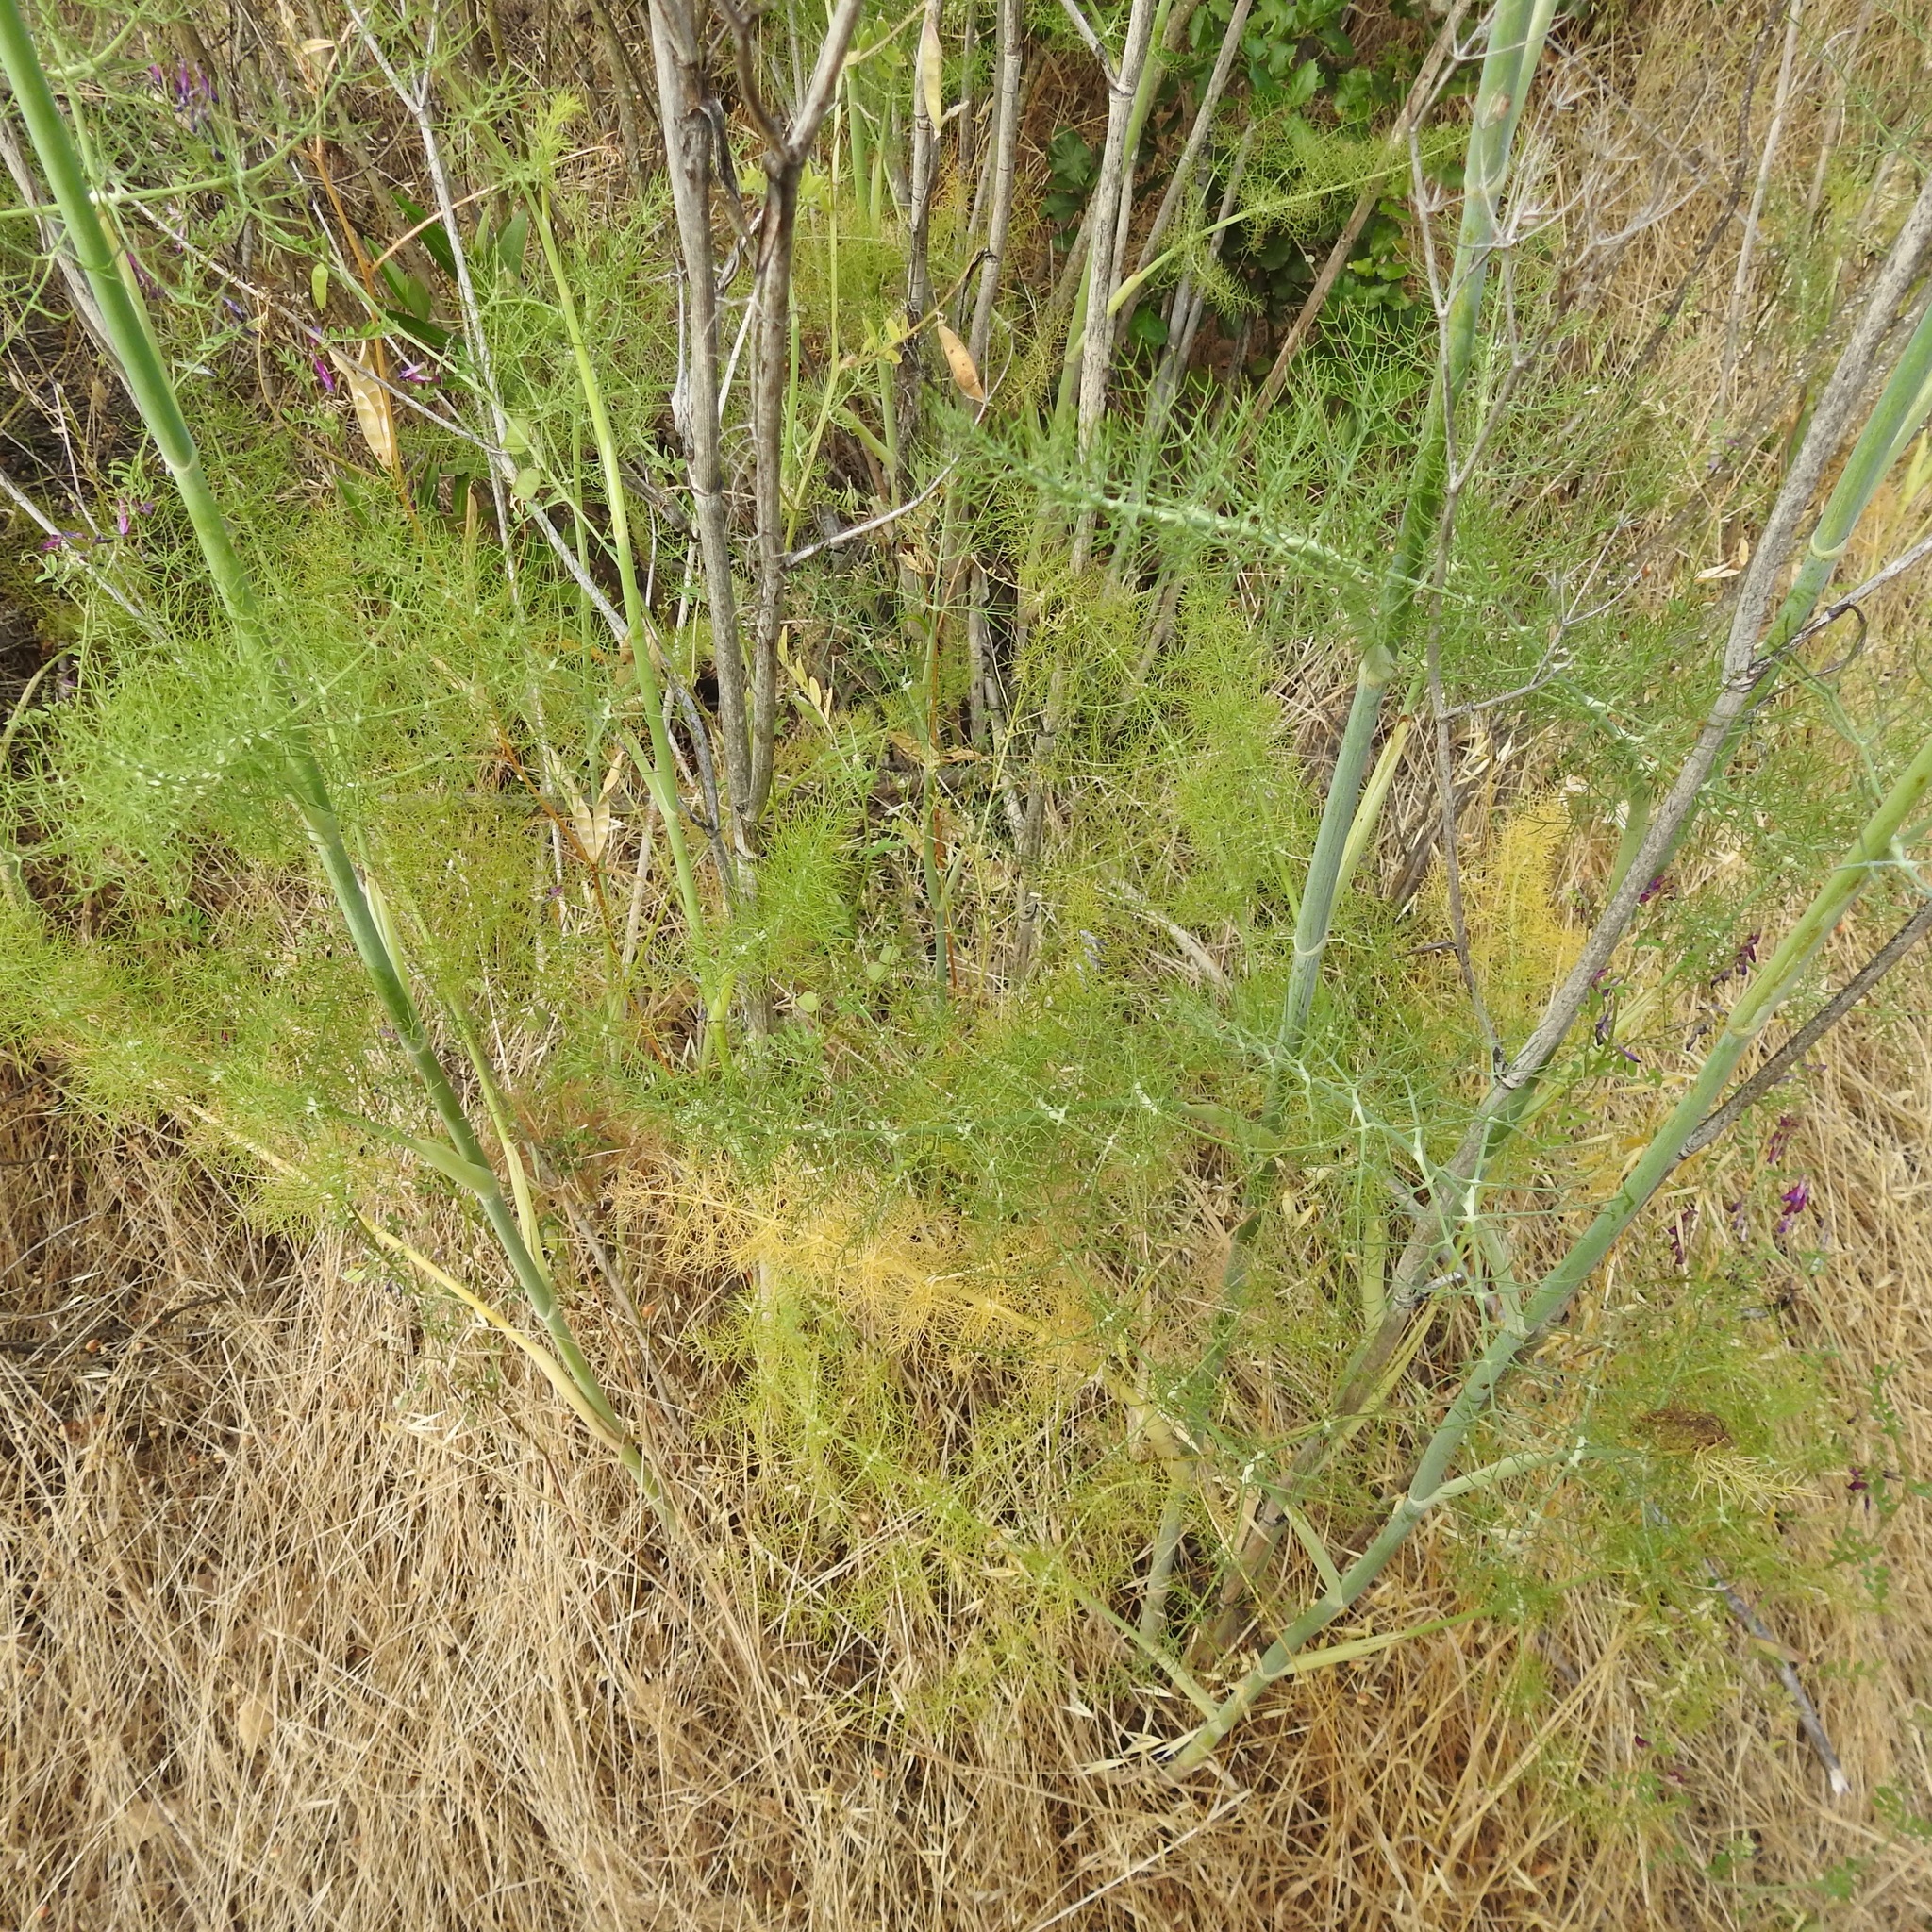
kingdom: Plantae
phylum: Tracheophyta
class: Magnoliopsida
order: Apiales
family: Apiaceae
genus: Foeniculum
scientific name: Foeniculum vulgare
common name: Fennel
